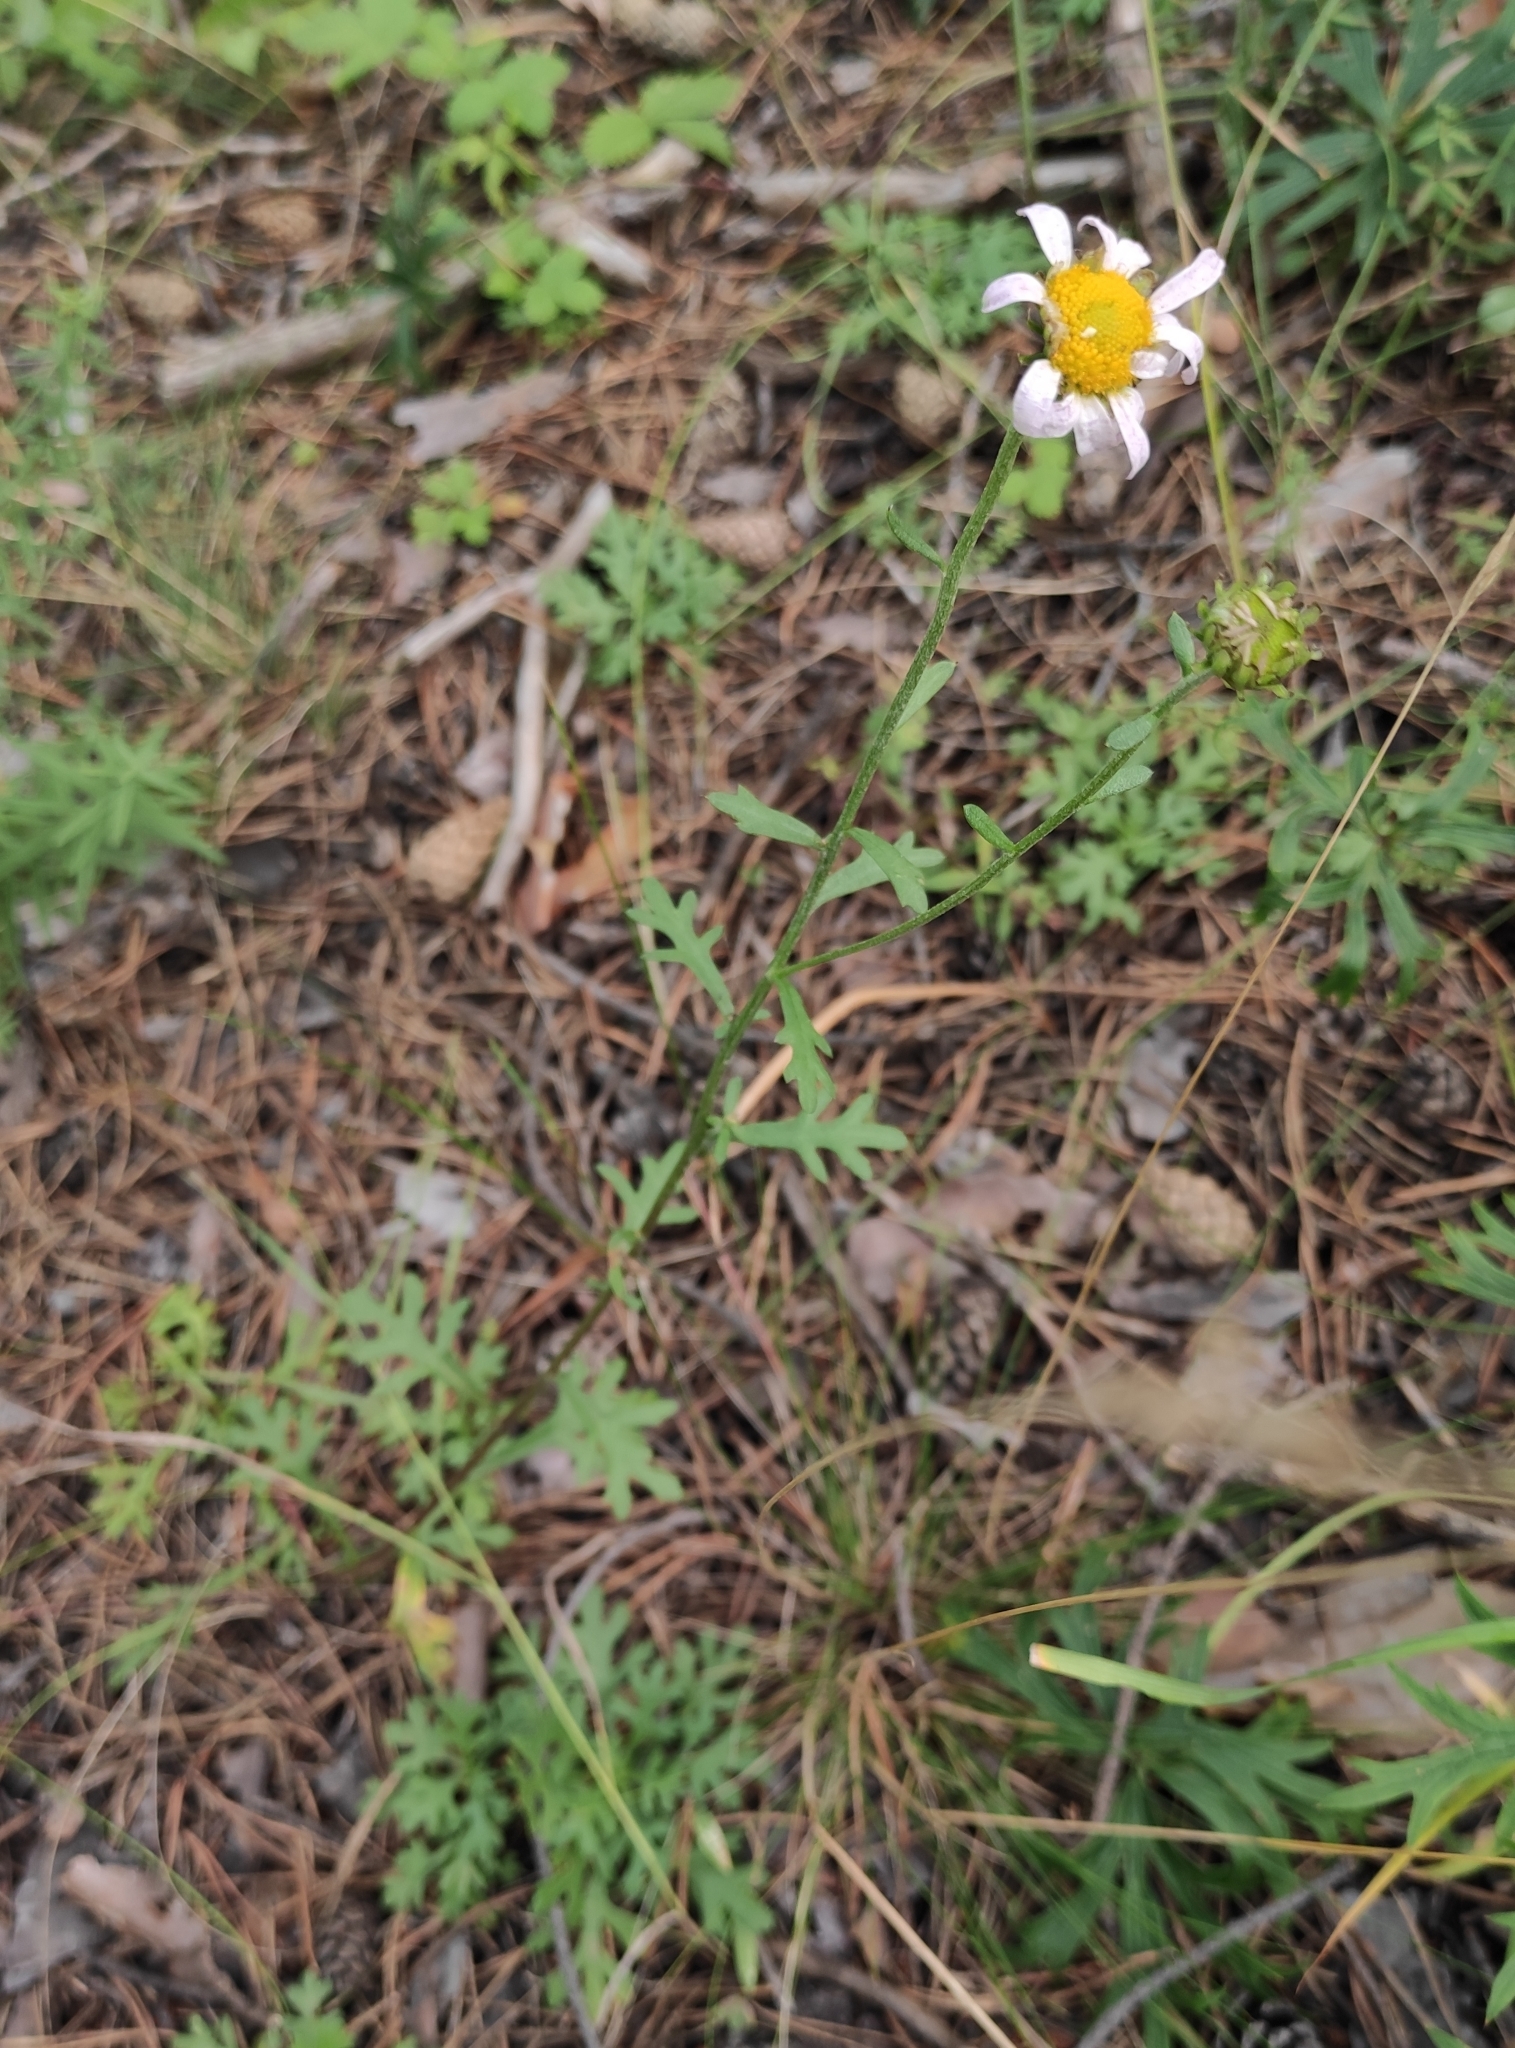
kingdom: Plantae
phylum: Tracheophyta
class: Magnoliopsida
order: Asterales
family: Asteraceae
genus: Chrysanthemum
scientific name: Chrysanthemum zawadzkii
